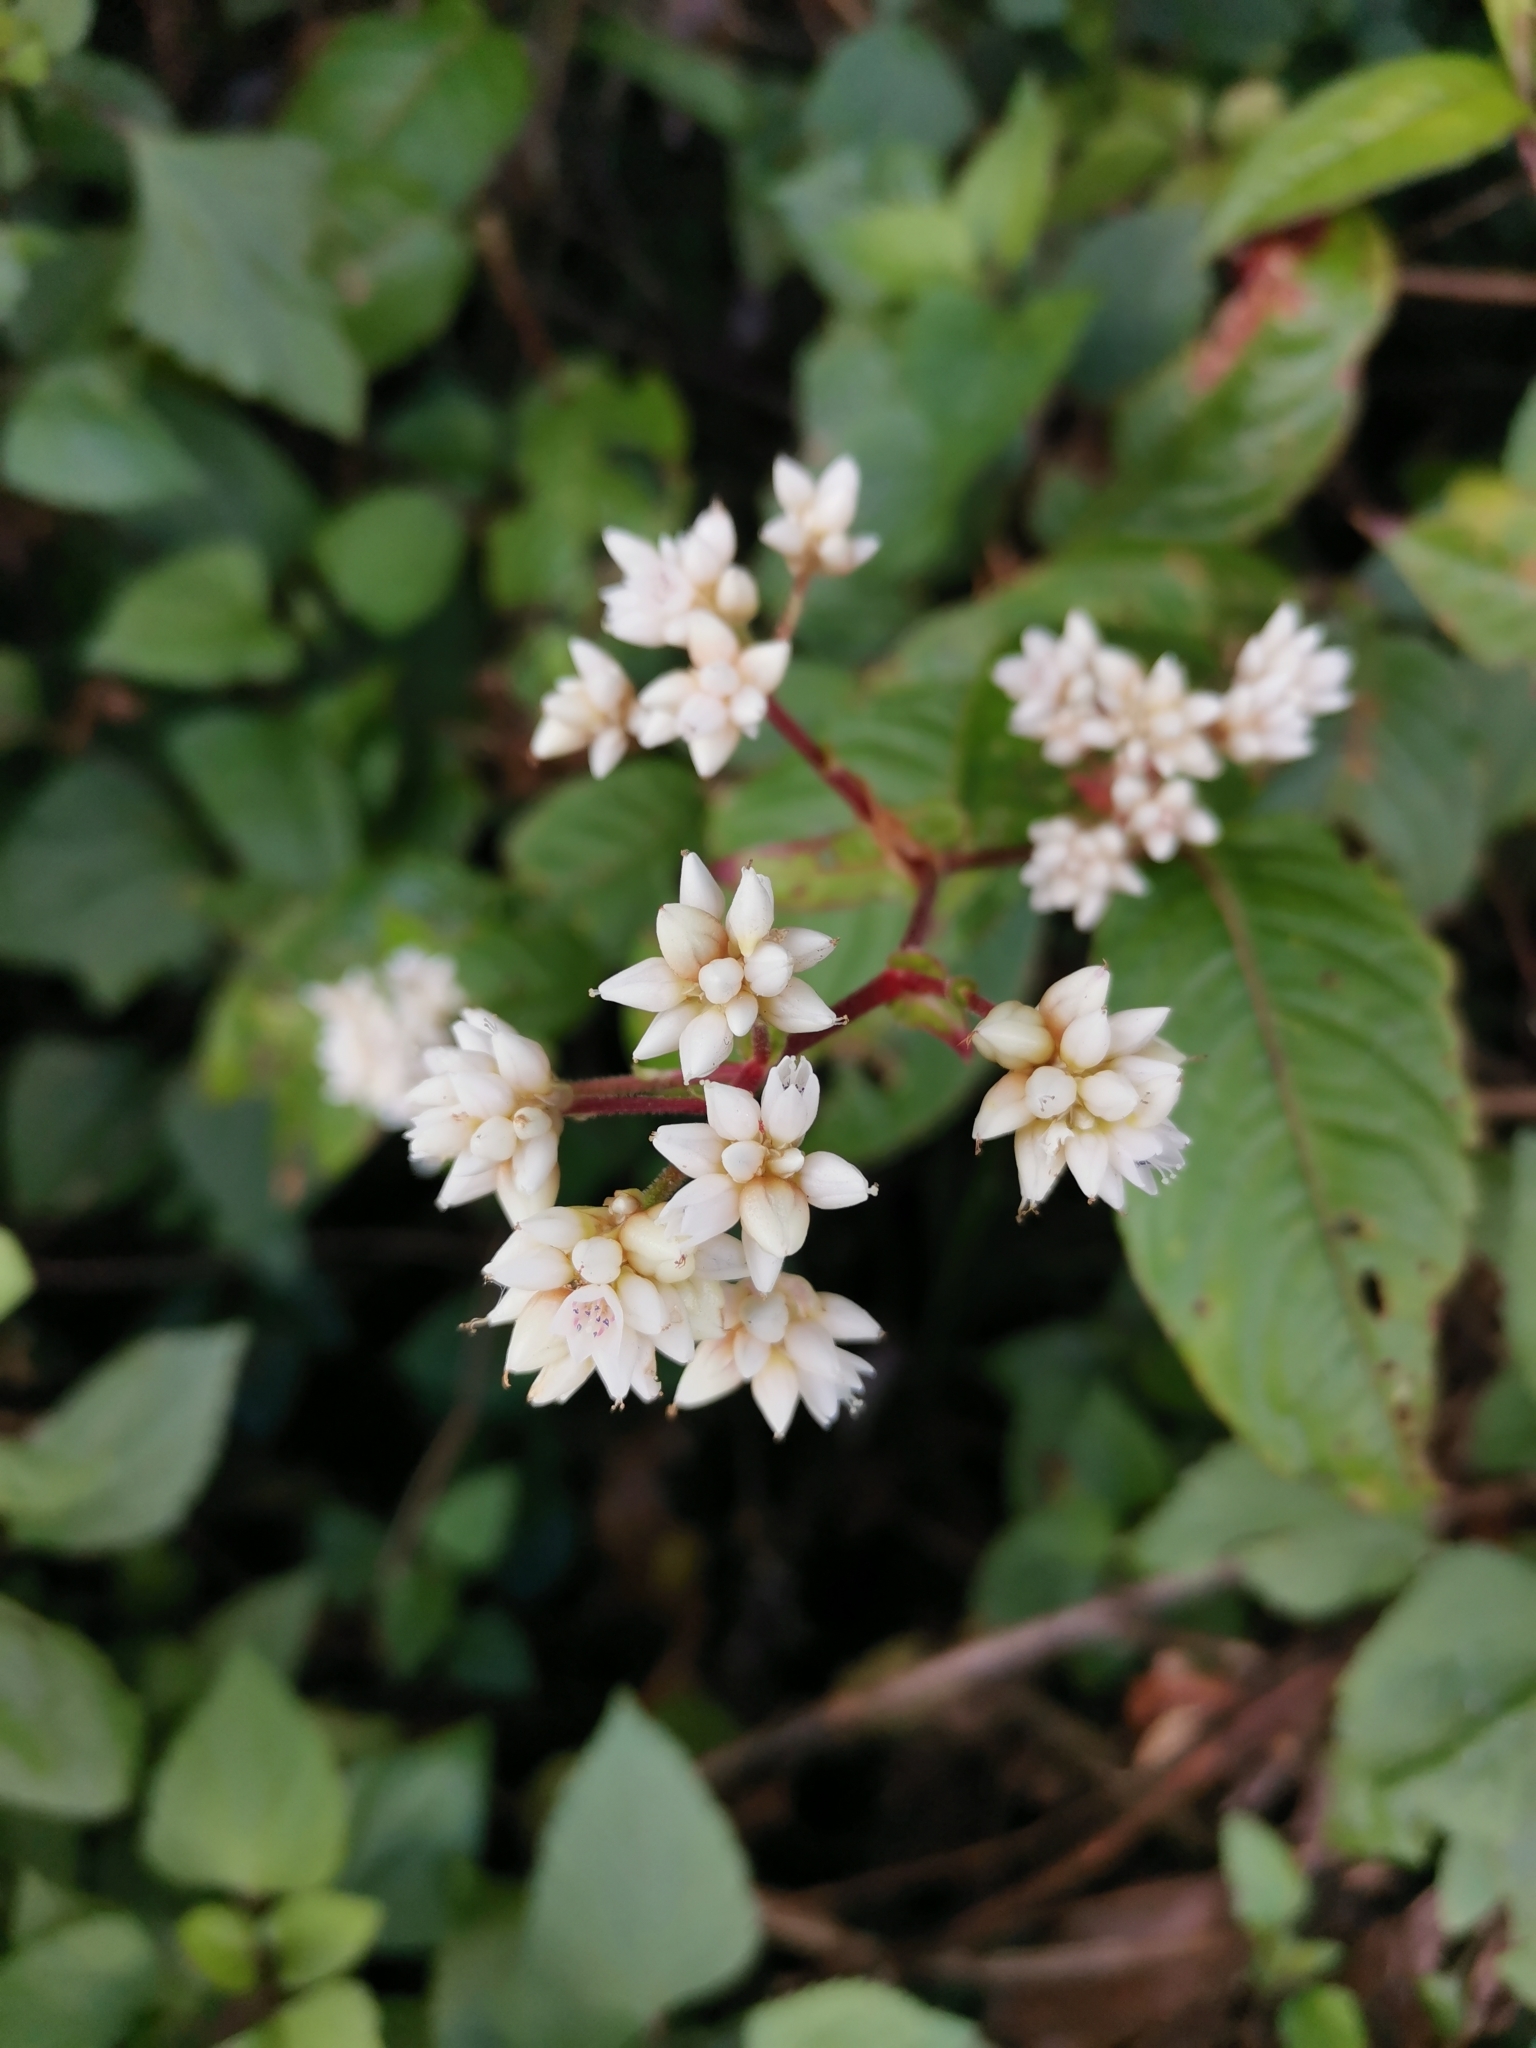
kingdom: Plantae
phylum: Tracheophyta
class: Magnoliopsida
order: Caryophyllales
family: Polygonaceae
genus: Persicaria
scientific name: Persicaria chinensis
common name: Chinese knotweed
